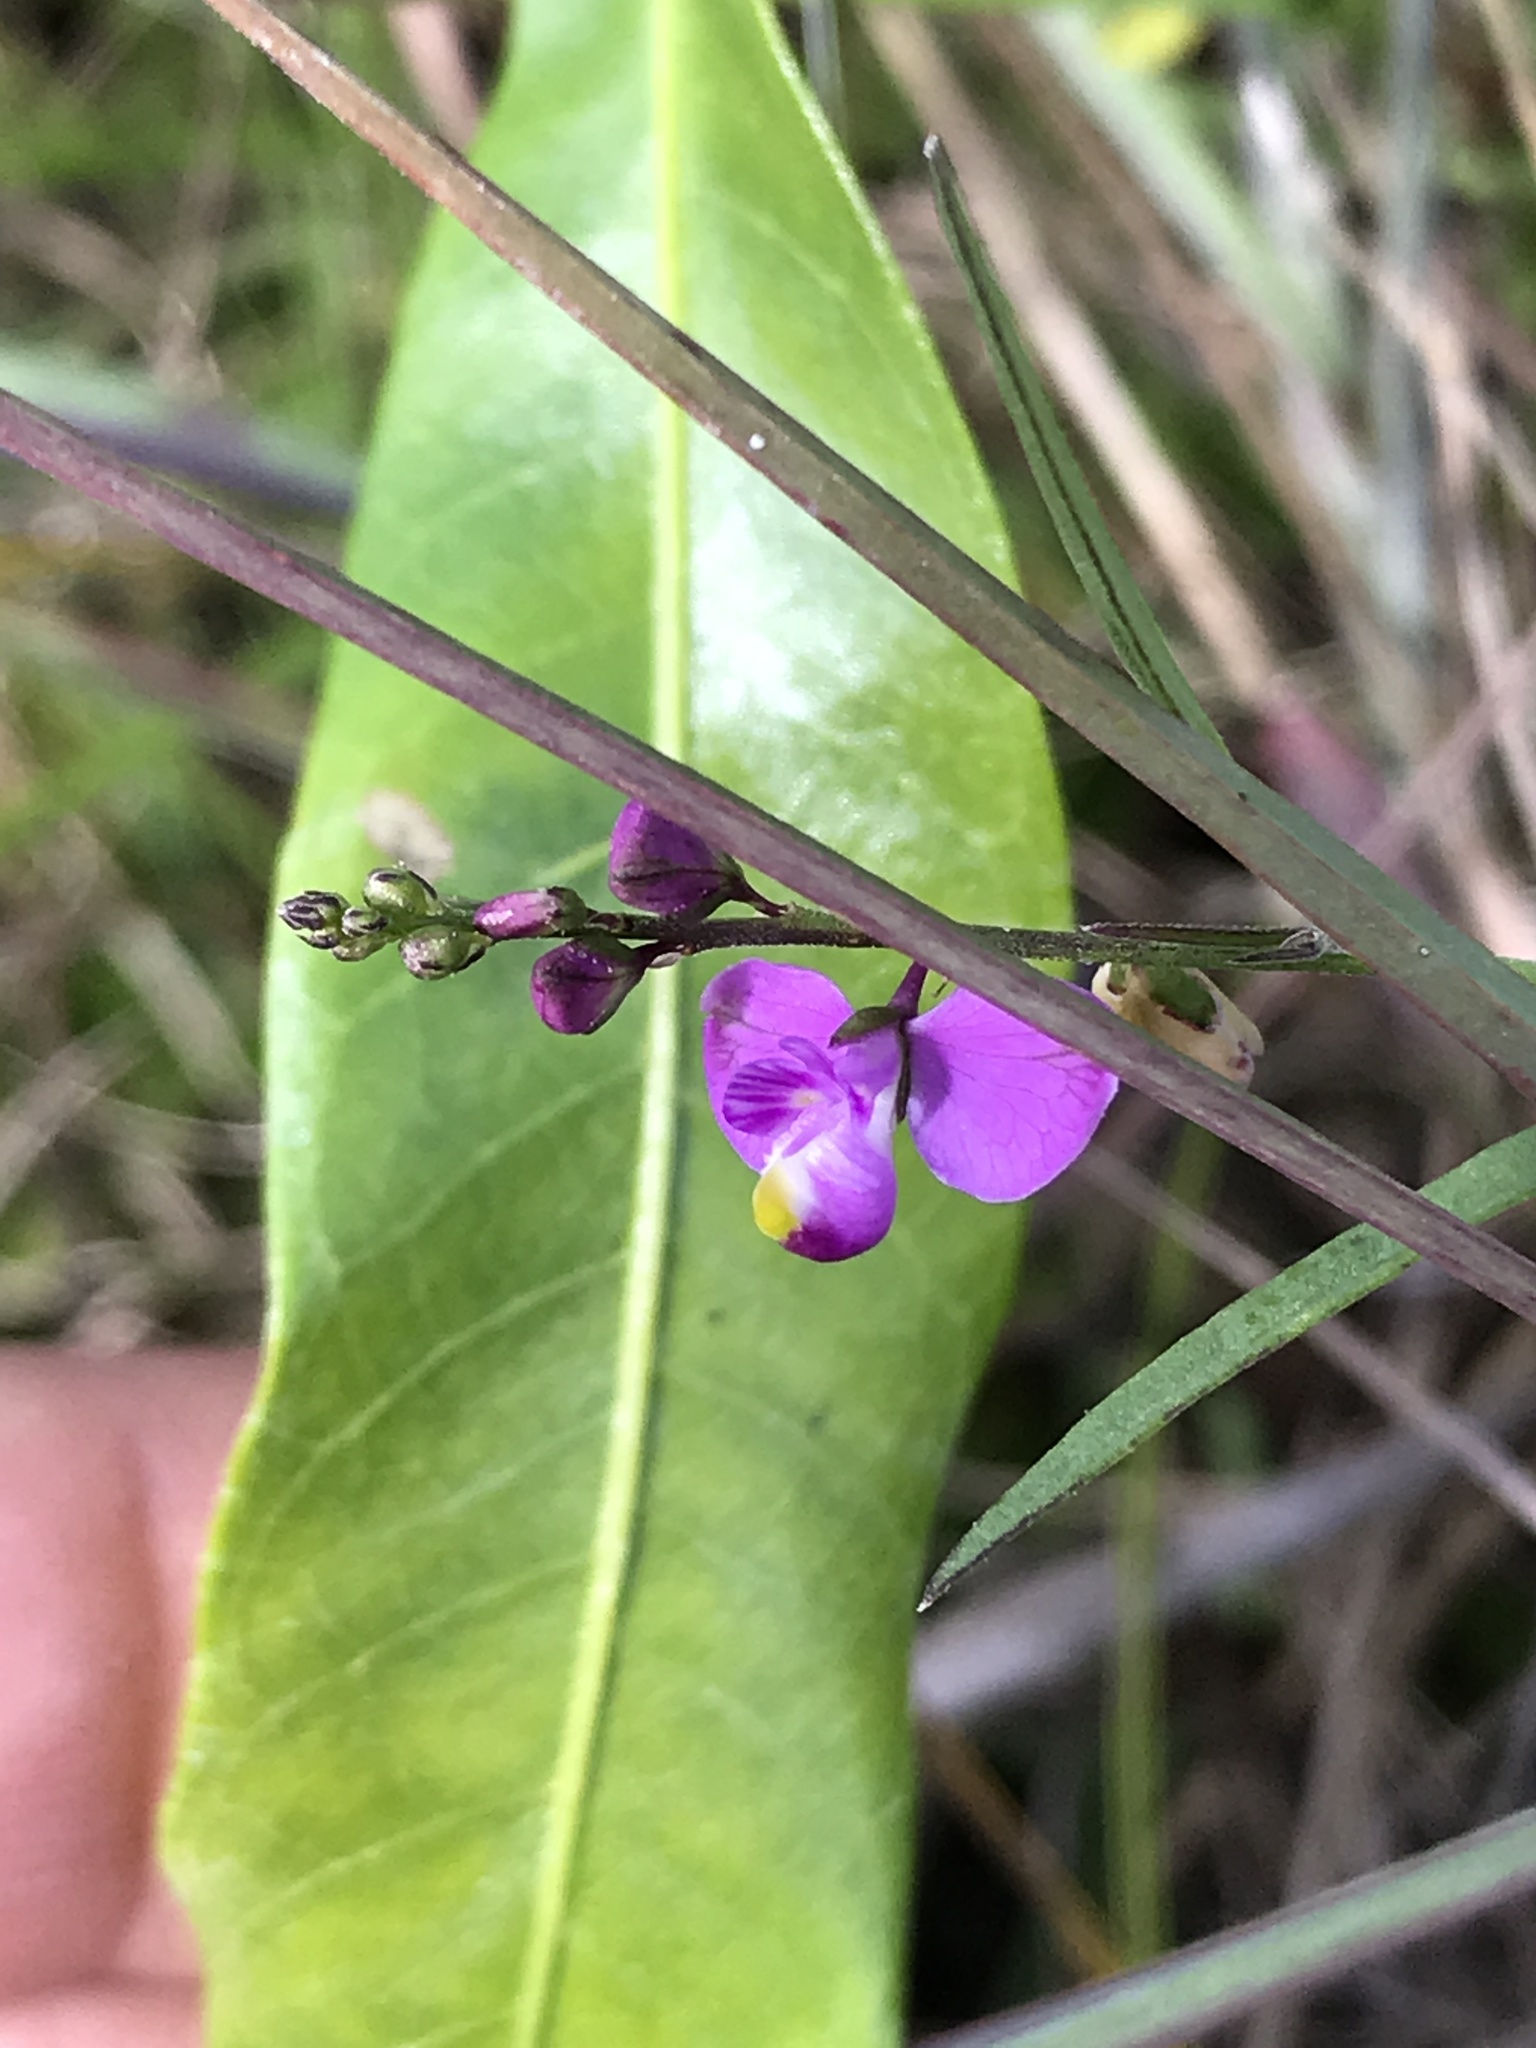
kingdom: Plantae
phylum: Tracheophyta
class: Magnoliopsida
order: Fabales
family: Polygalaceae
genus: Asemeia
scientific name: Asemeia grandiflora
